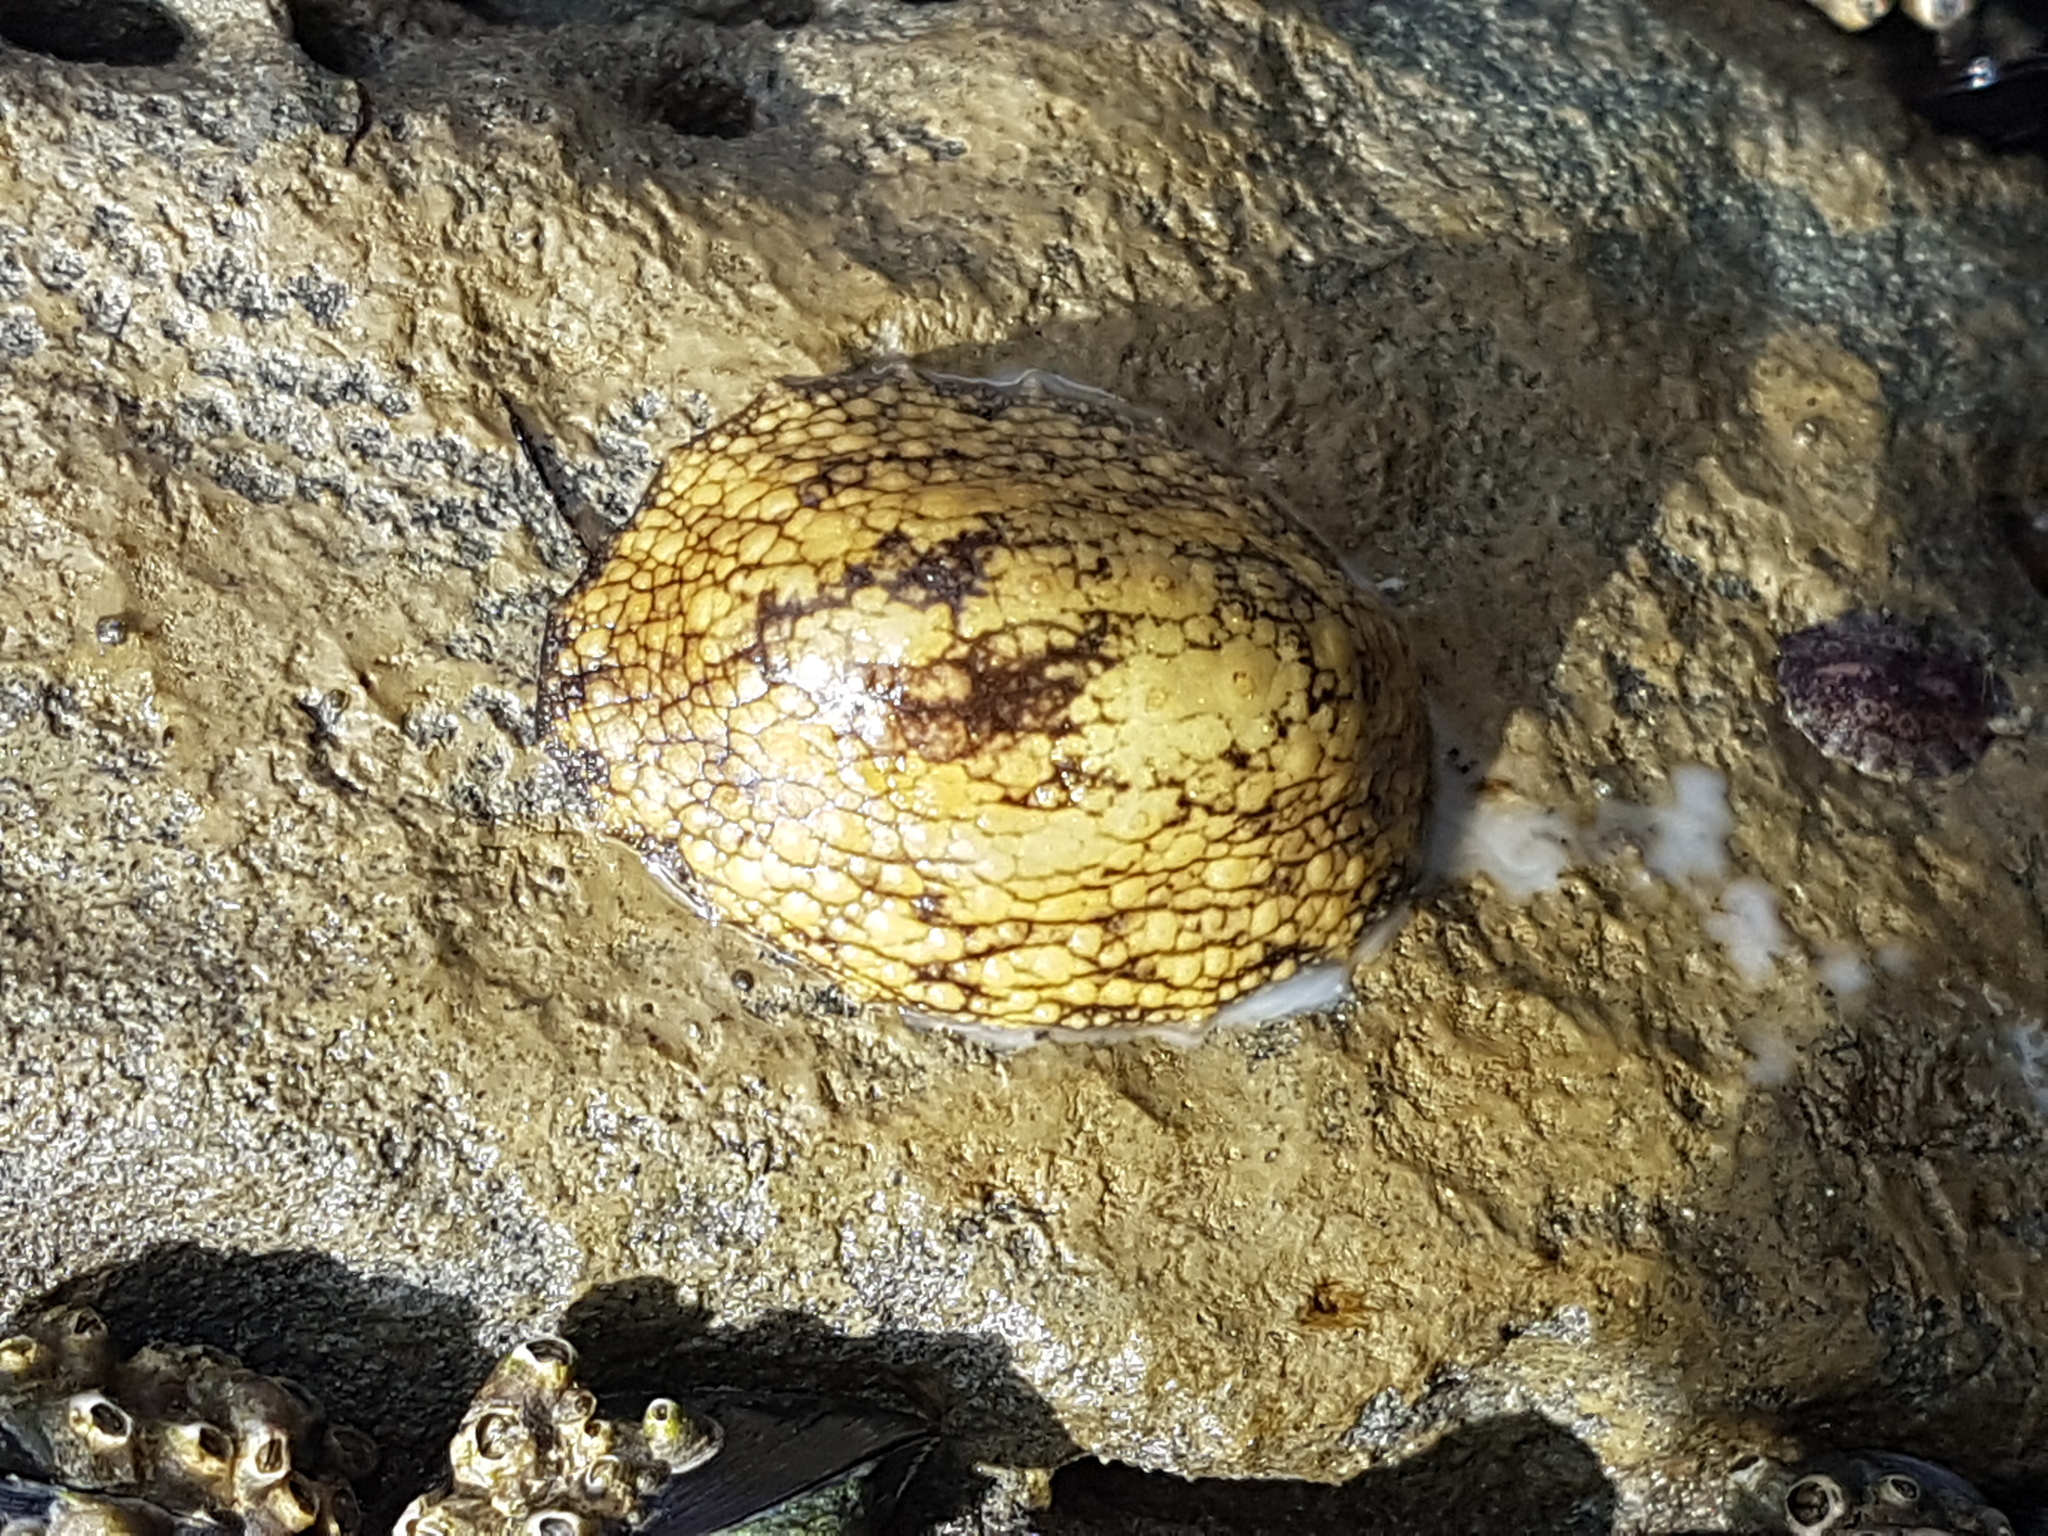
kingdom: Animalia
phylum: Mollusca
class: Gastropoda
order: Systellommatophora
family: Onchidiidae
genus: Onchidella
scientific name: Onchidella nigricans
